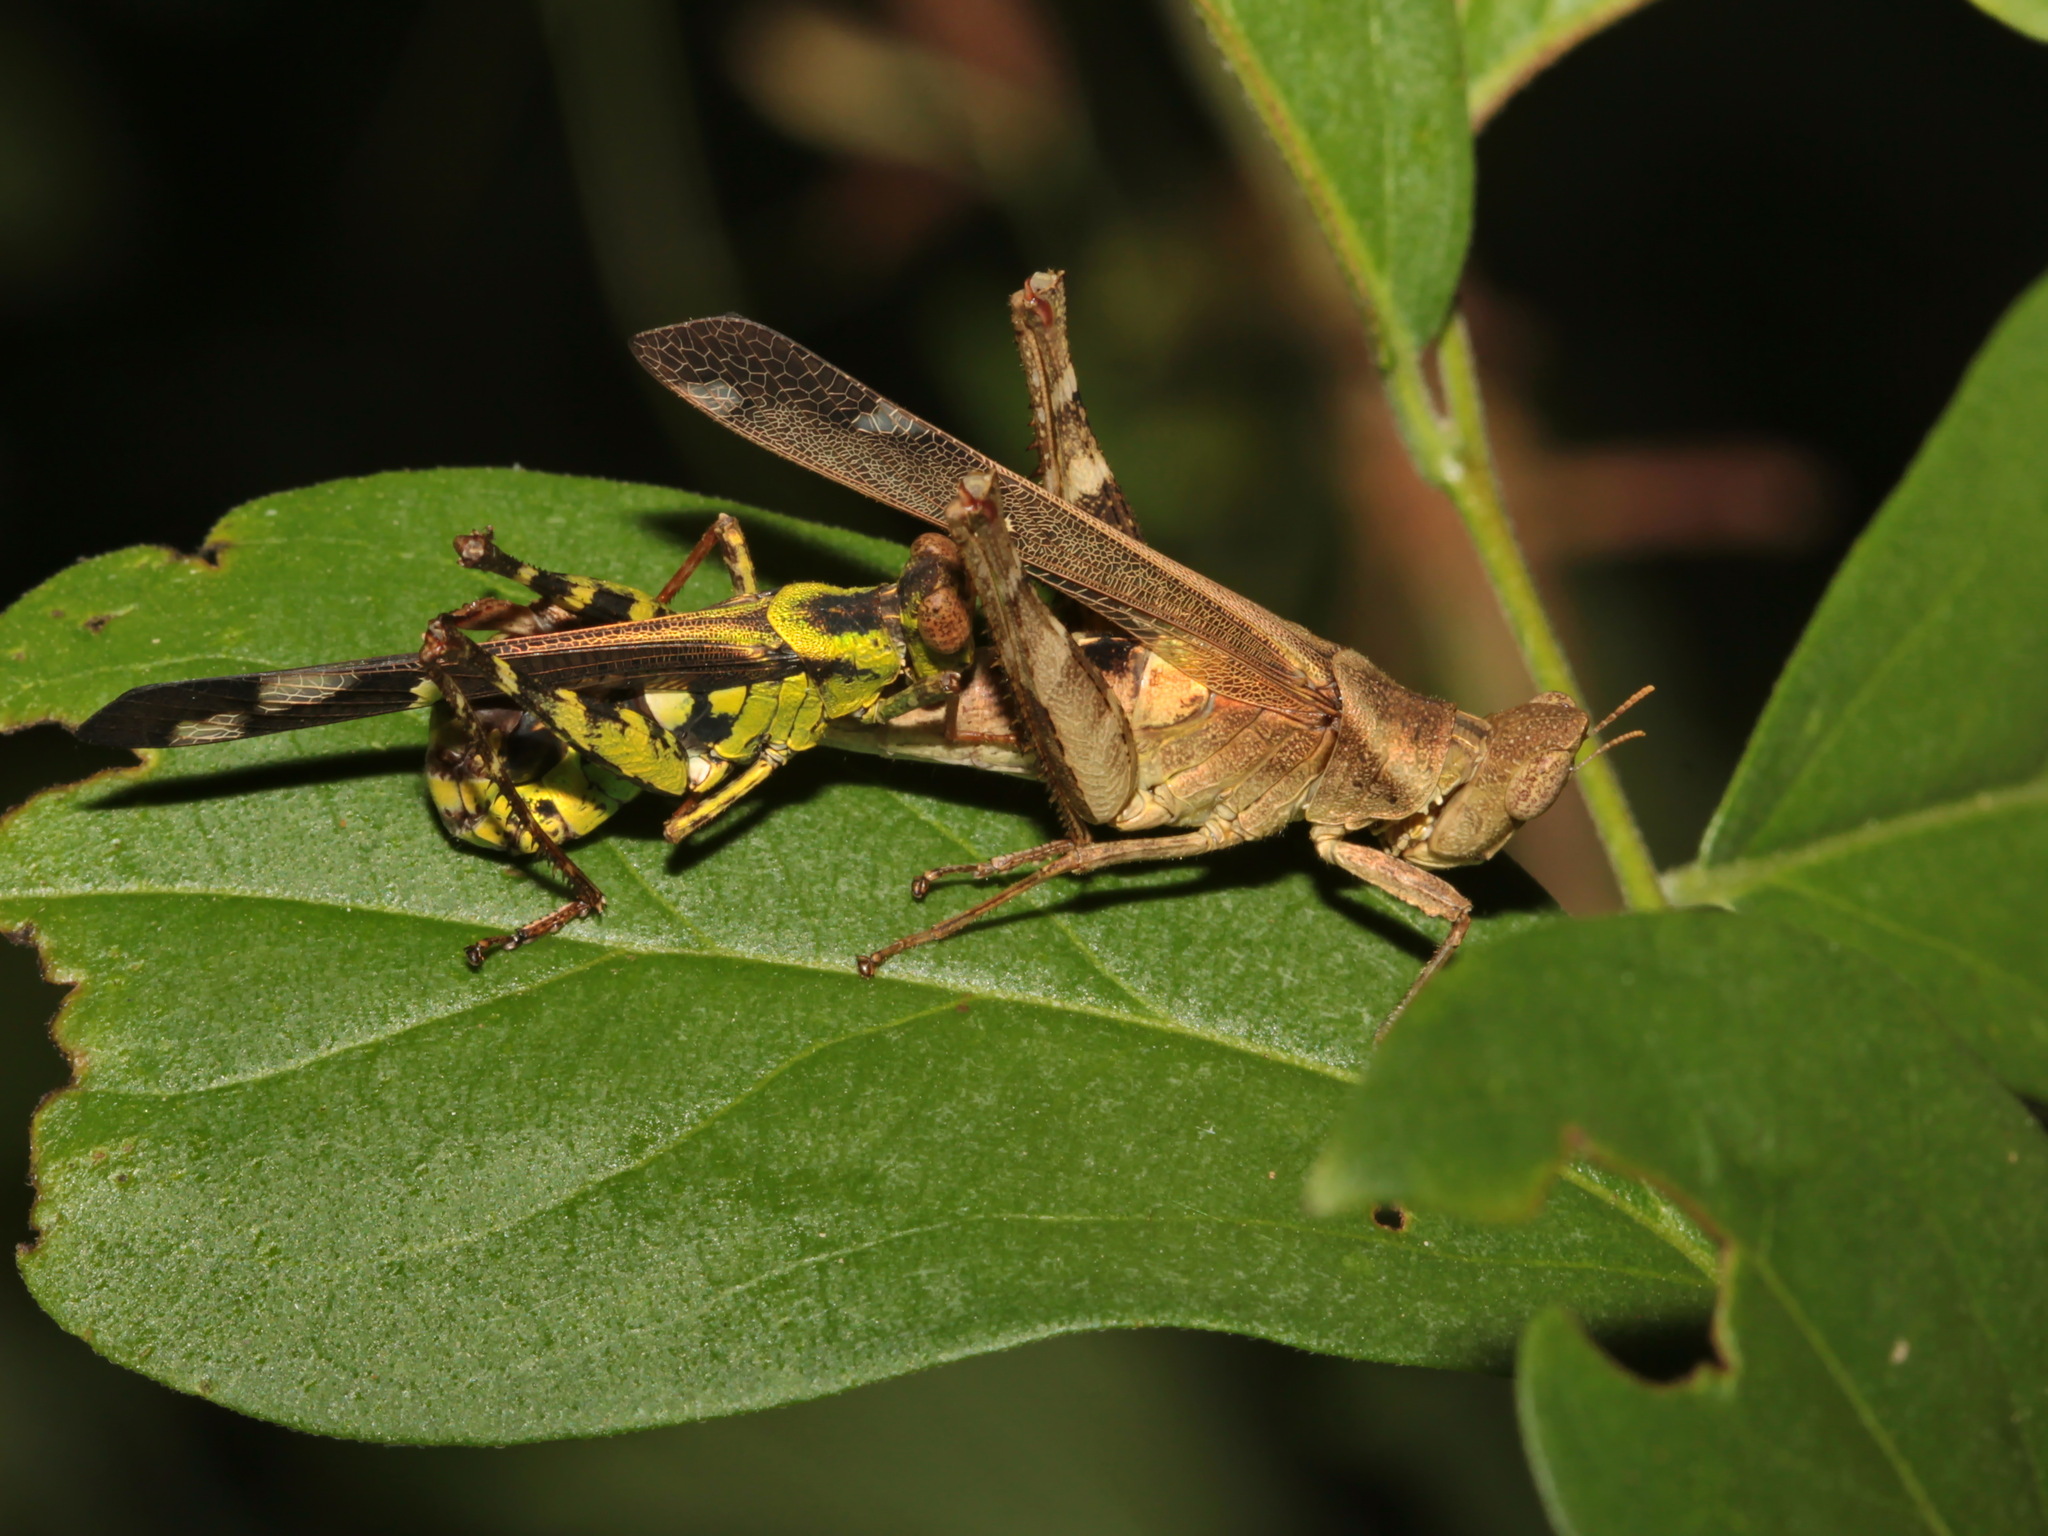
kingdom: Animalia
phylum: Arthropoda
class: Insecta
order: Orthoptera
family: Chorotypidae
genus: Erianthus
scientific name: Erianthus fruhstorferi
